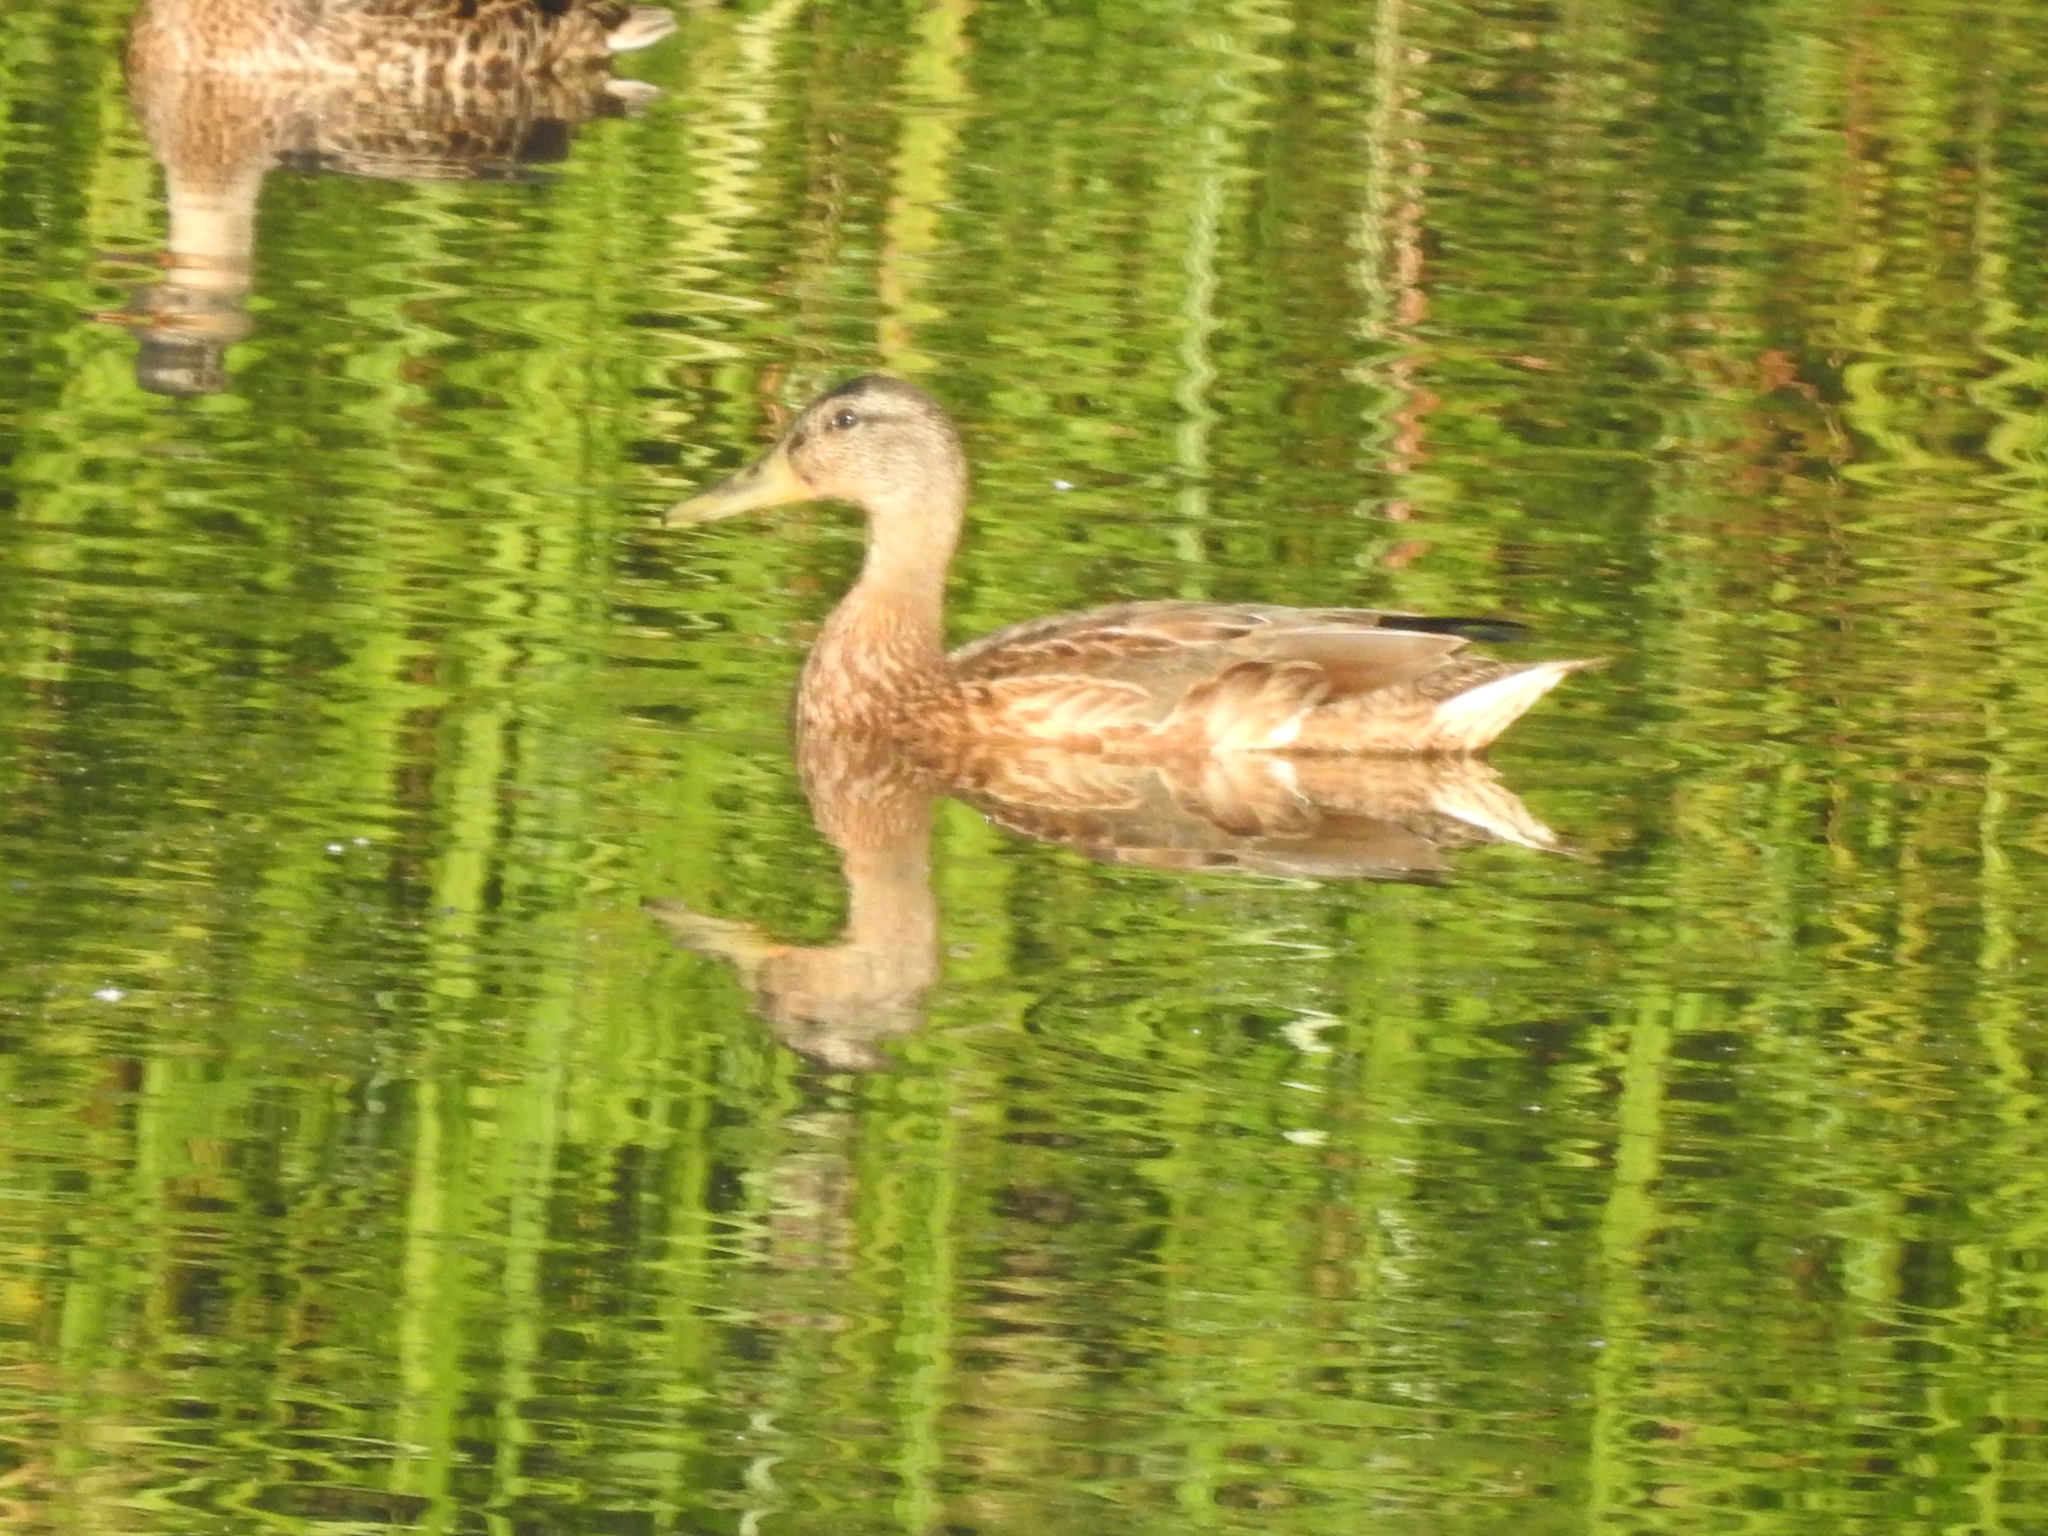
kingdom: Animalia
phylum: Chordata
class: Aves
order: Anseriformes
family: Anatidae
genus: Anas
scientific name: Anas platyrhynchos
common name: Mallard
